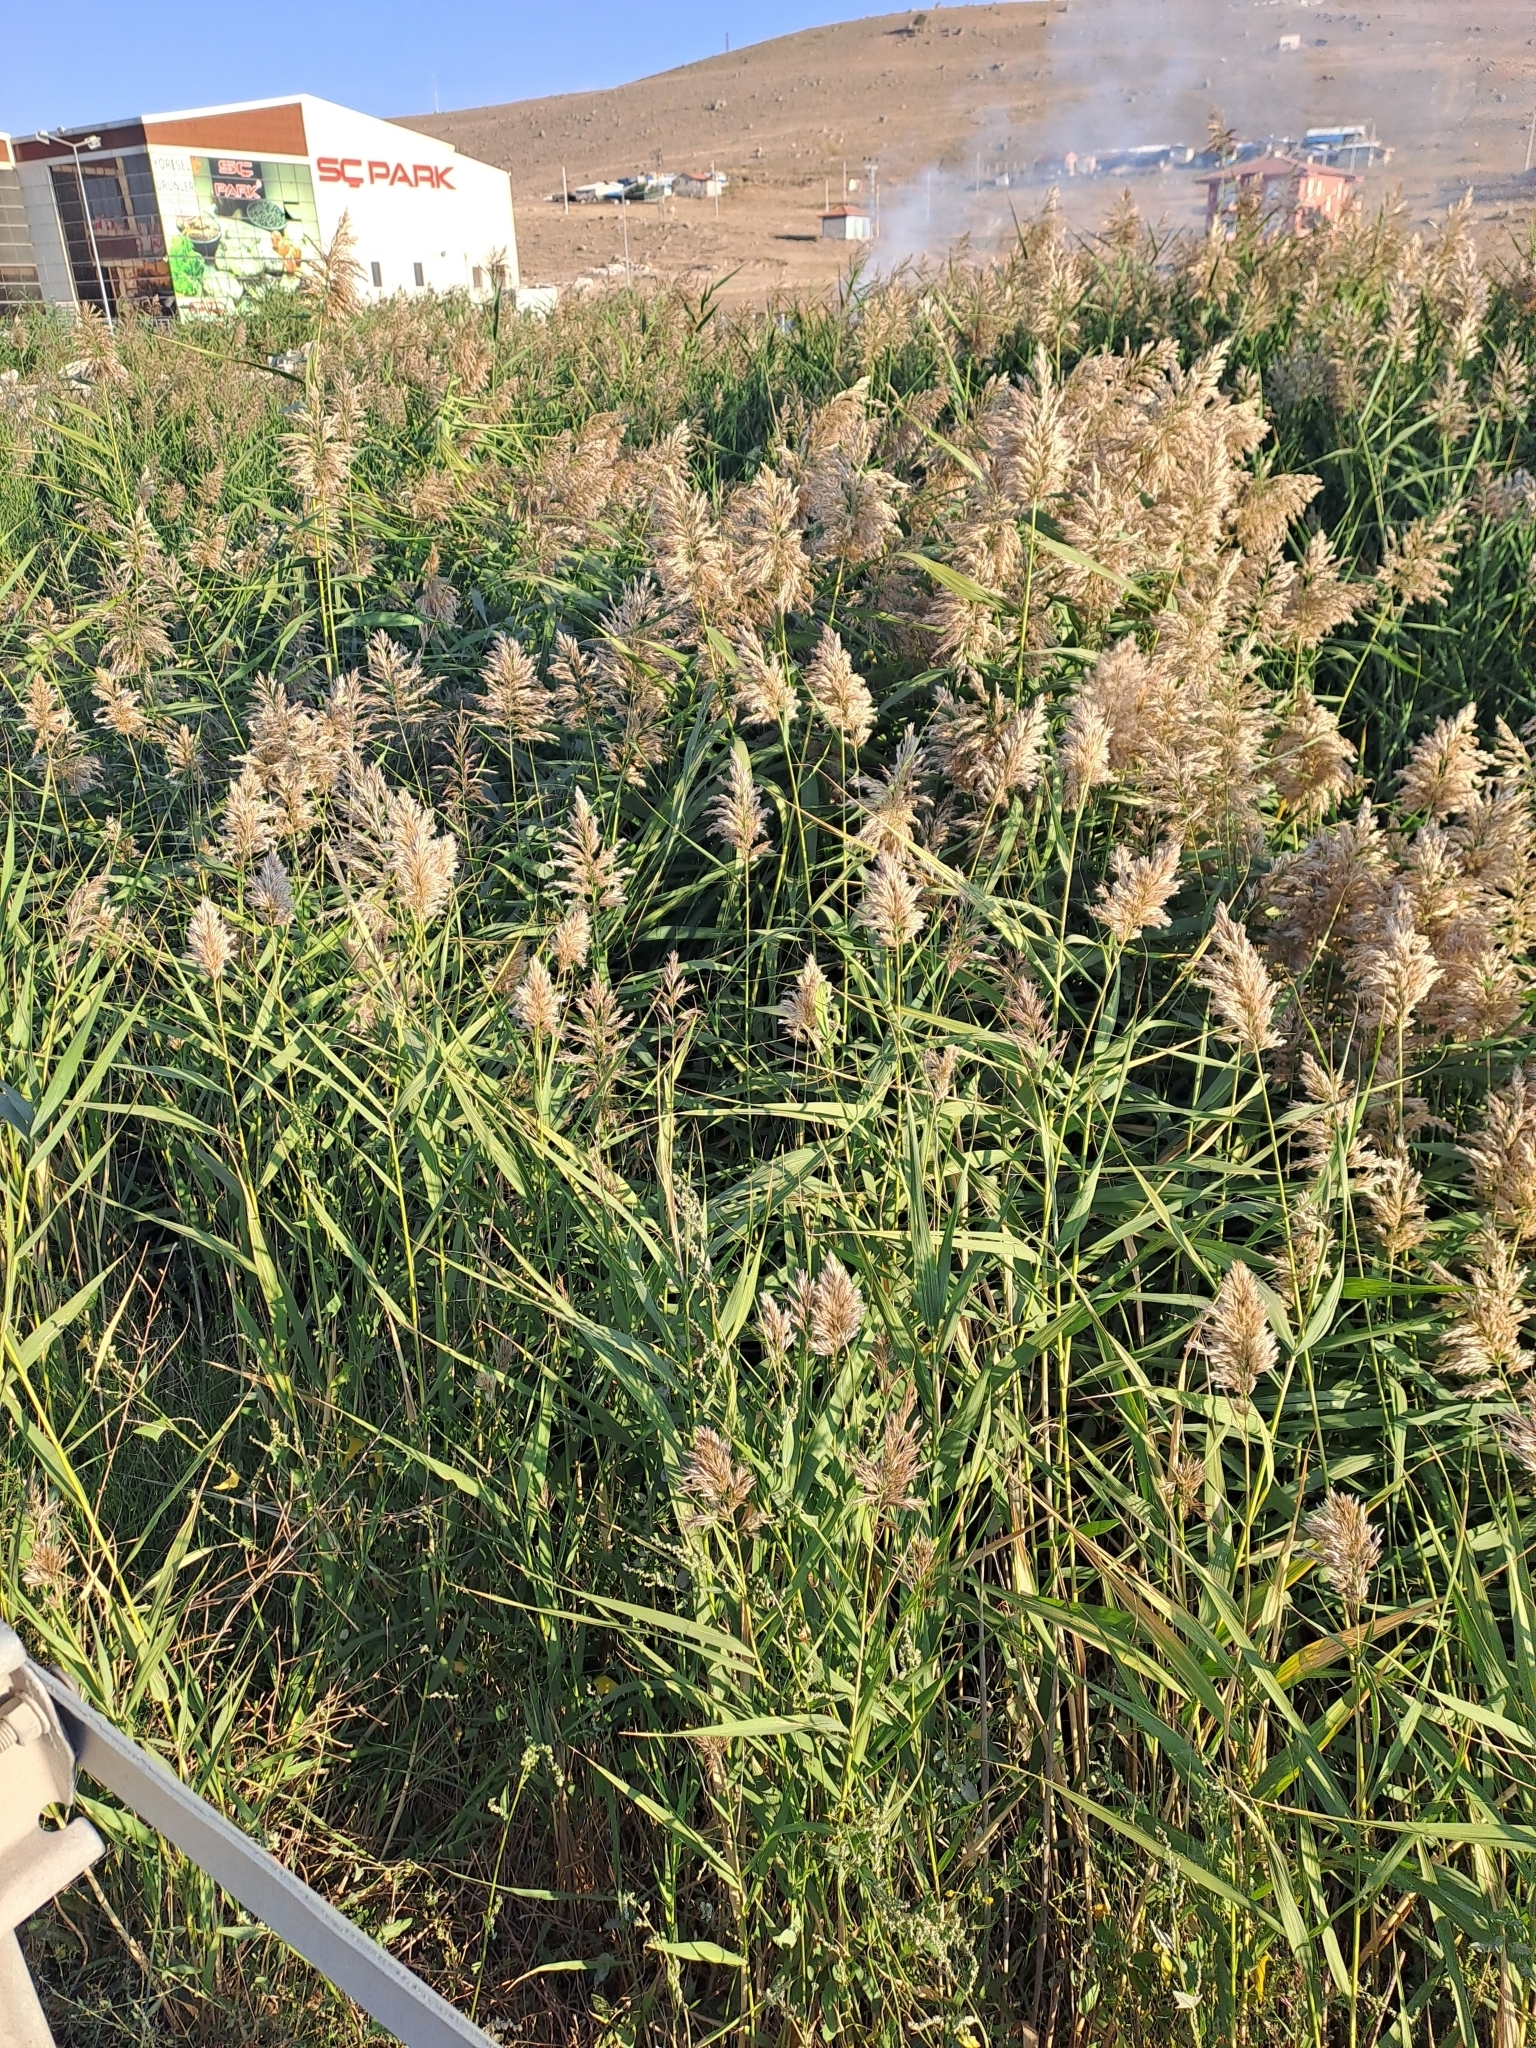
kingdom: Plantae
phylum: Tracheophyta
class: Liliopsida
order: Poales
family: Poaceae
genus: Phragmites
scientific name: Phragmites australis
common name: Common reed
